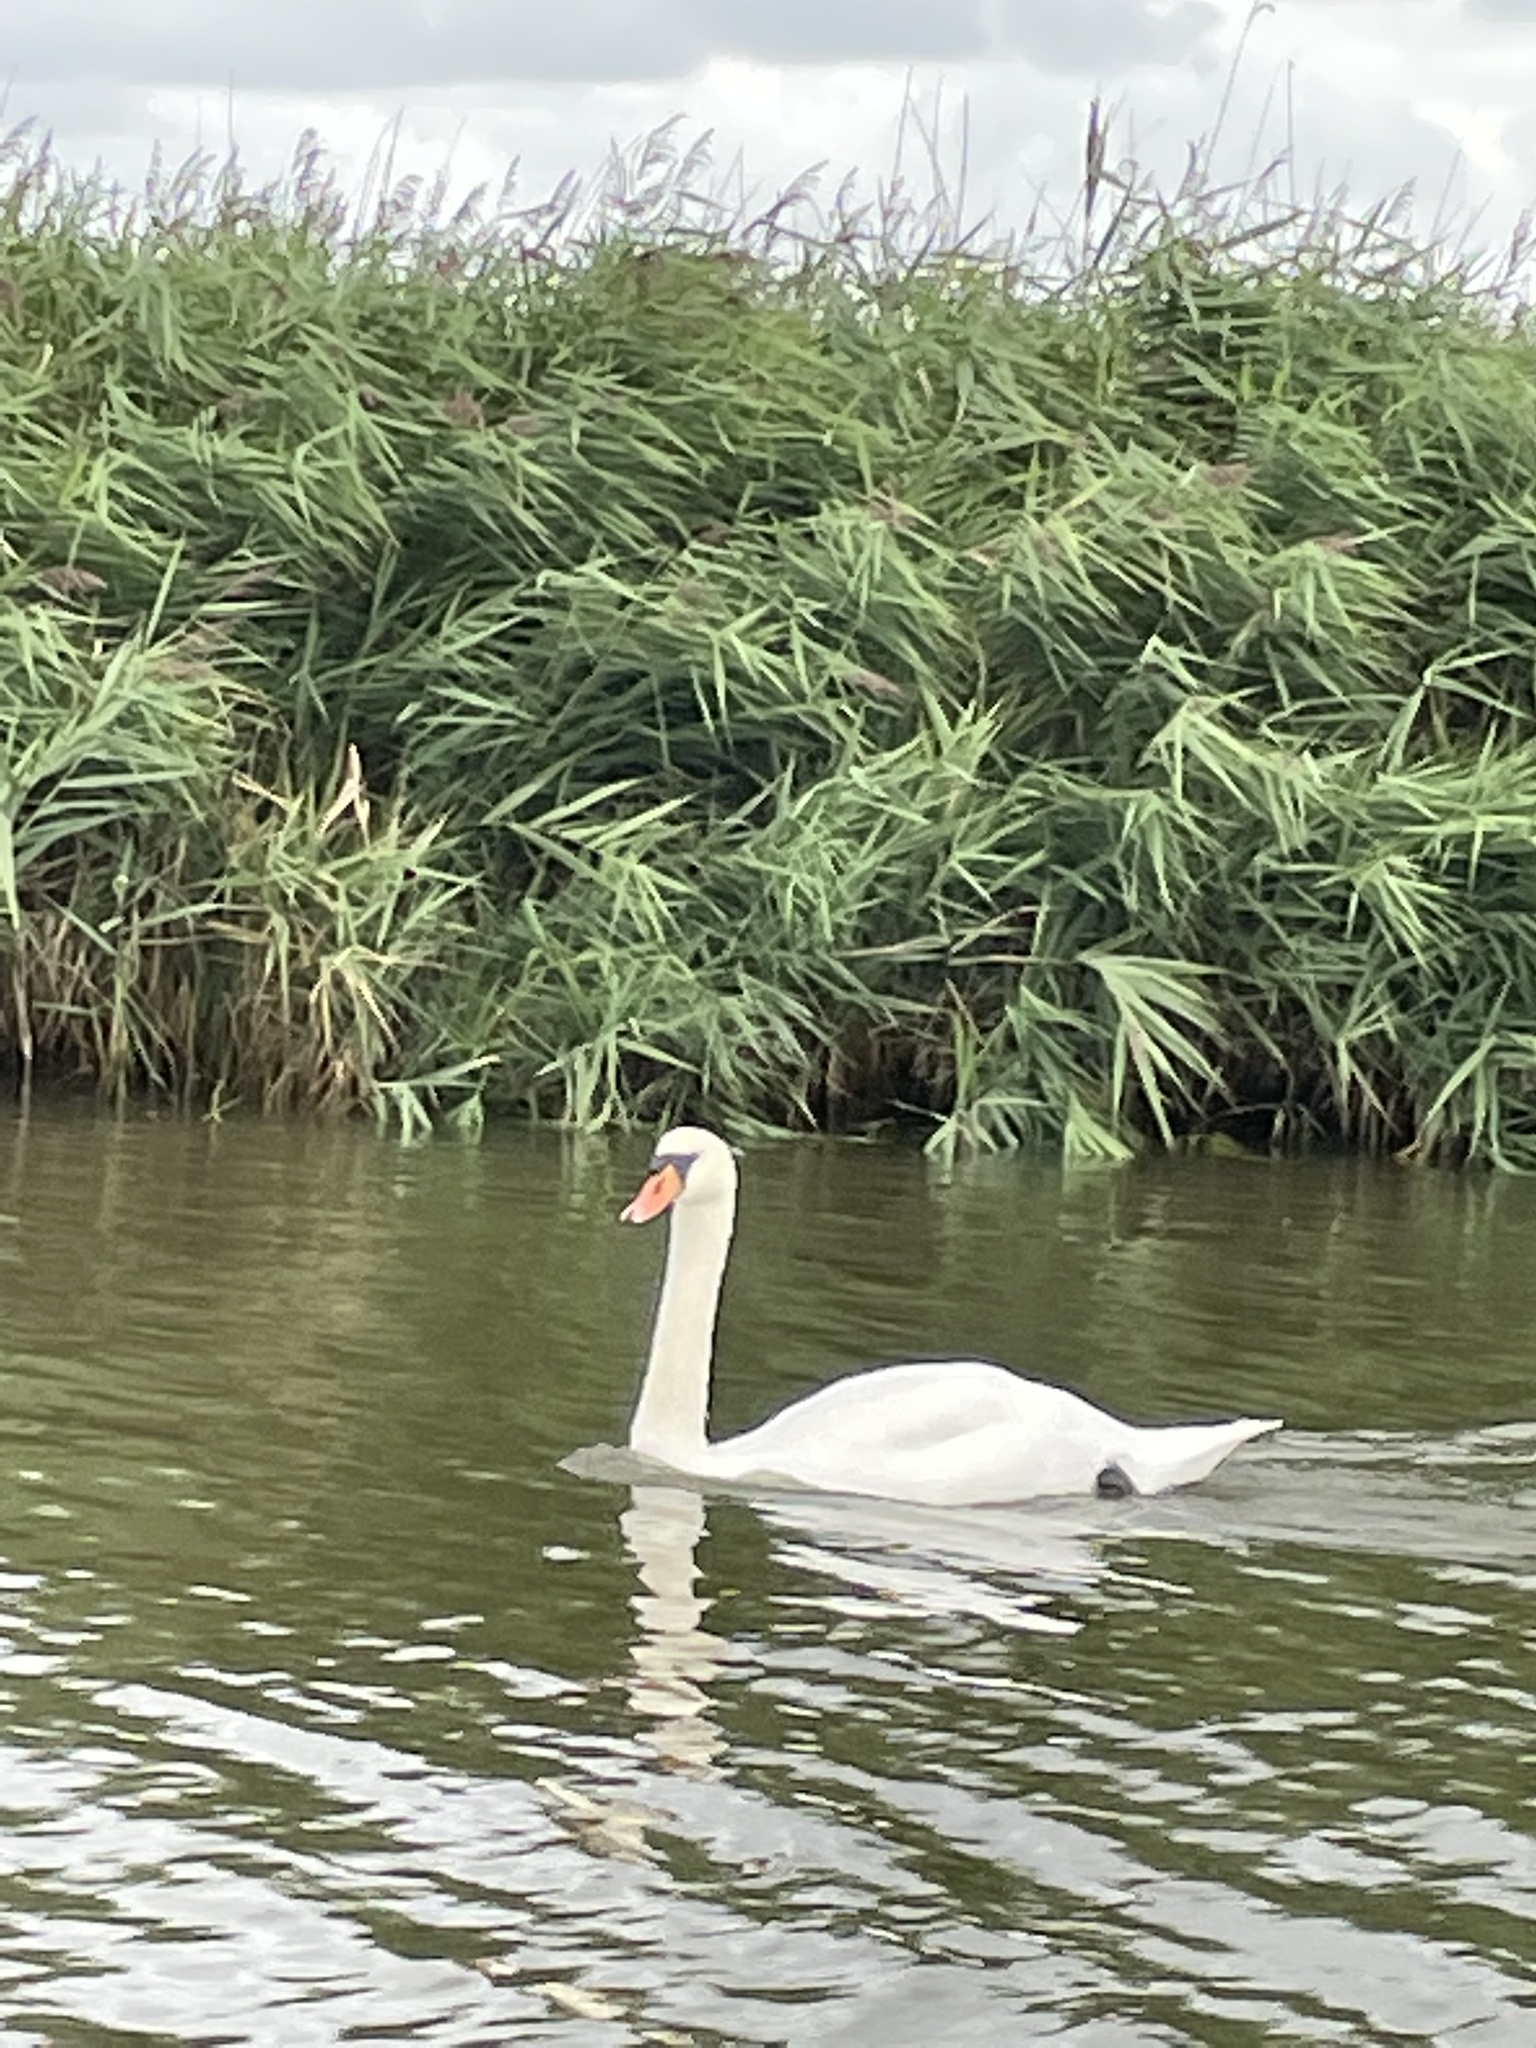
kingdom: Animalia
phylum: Chordata
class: Aves
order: Anseriformes
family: Anatidae
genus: Cygnus
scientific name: Cygnus olor
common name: Mute swan
